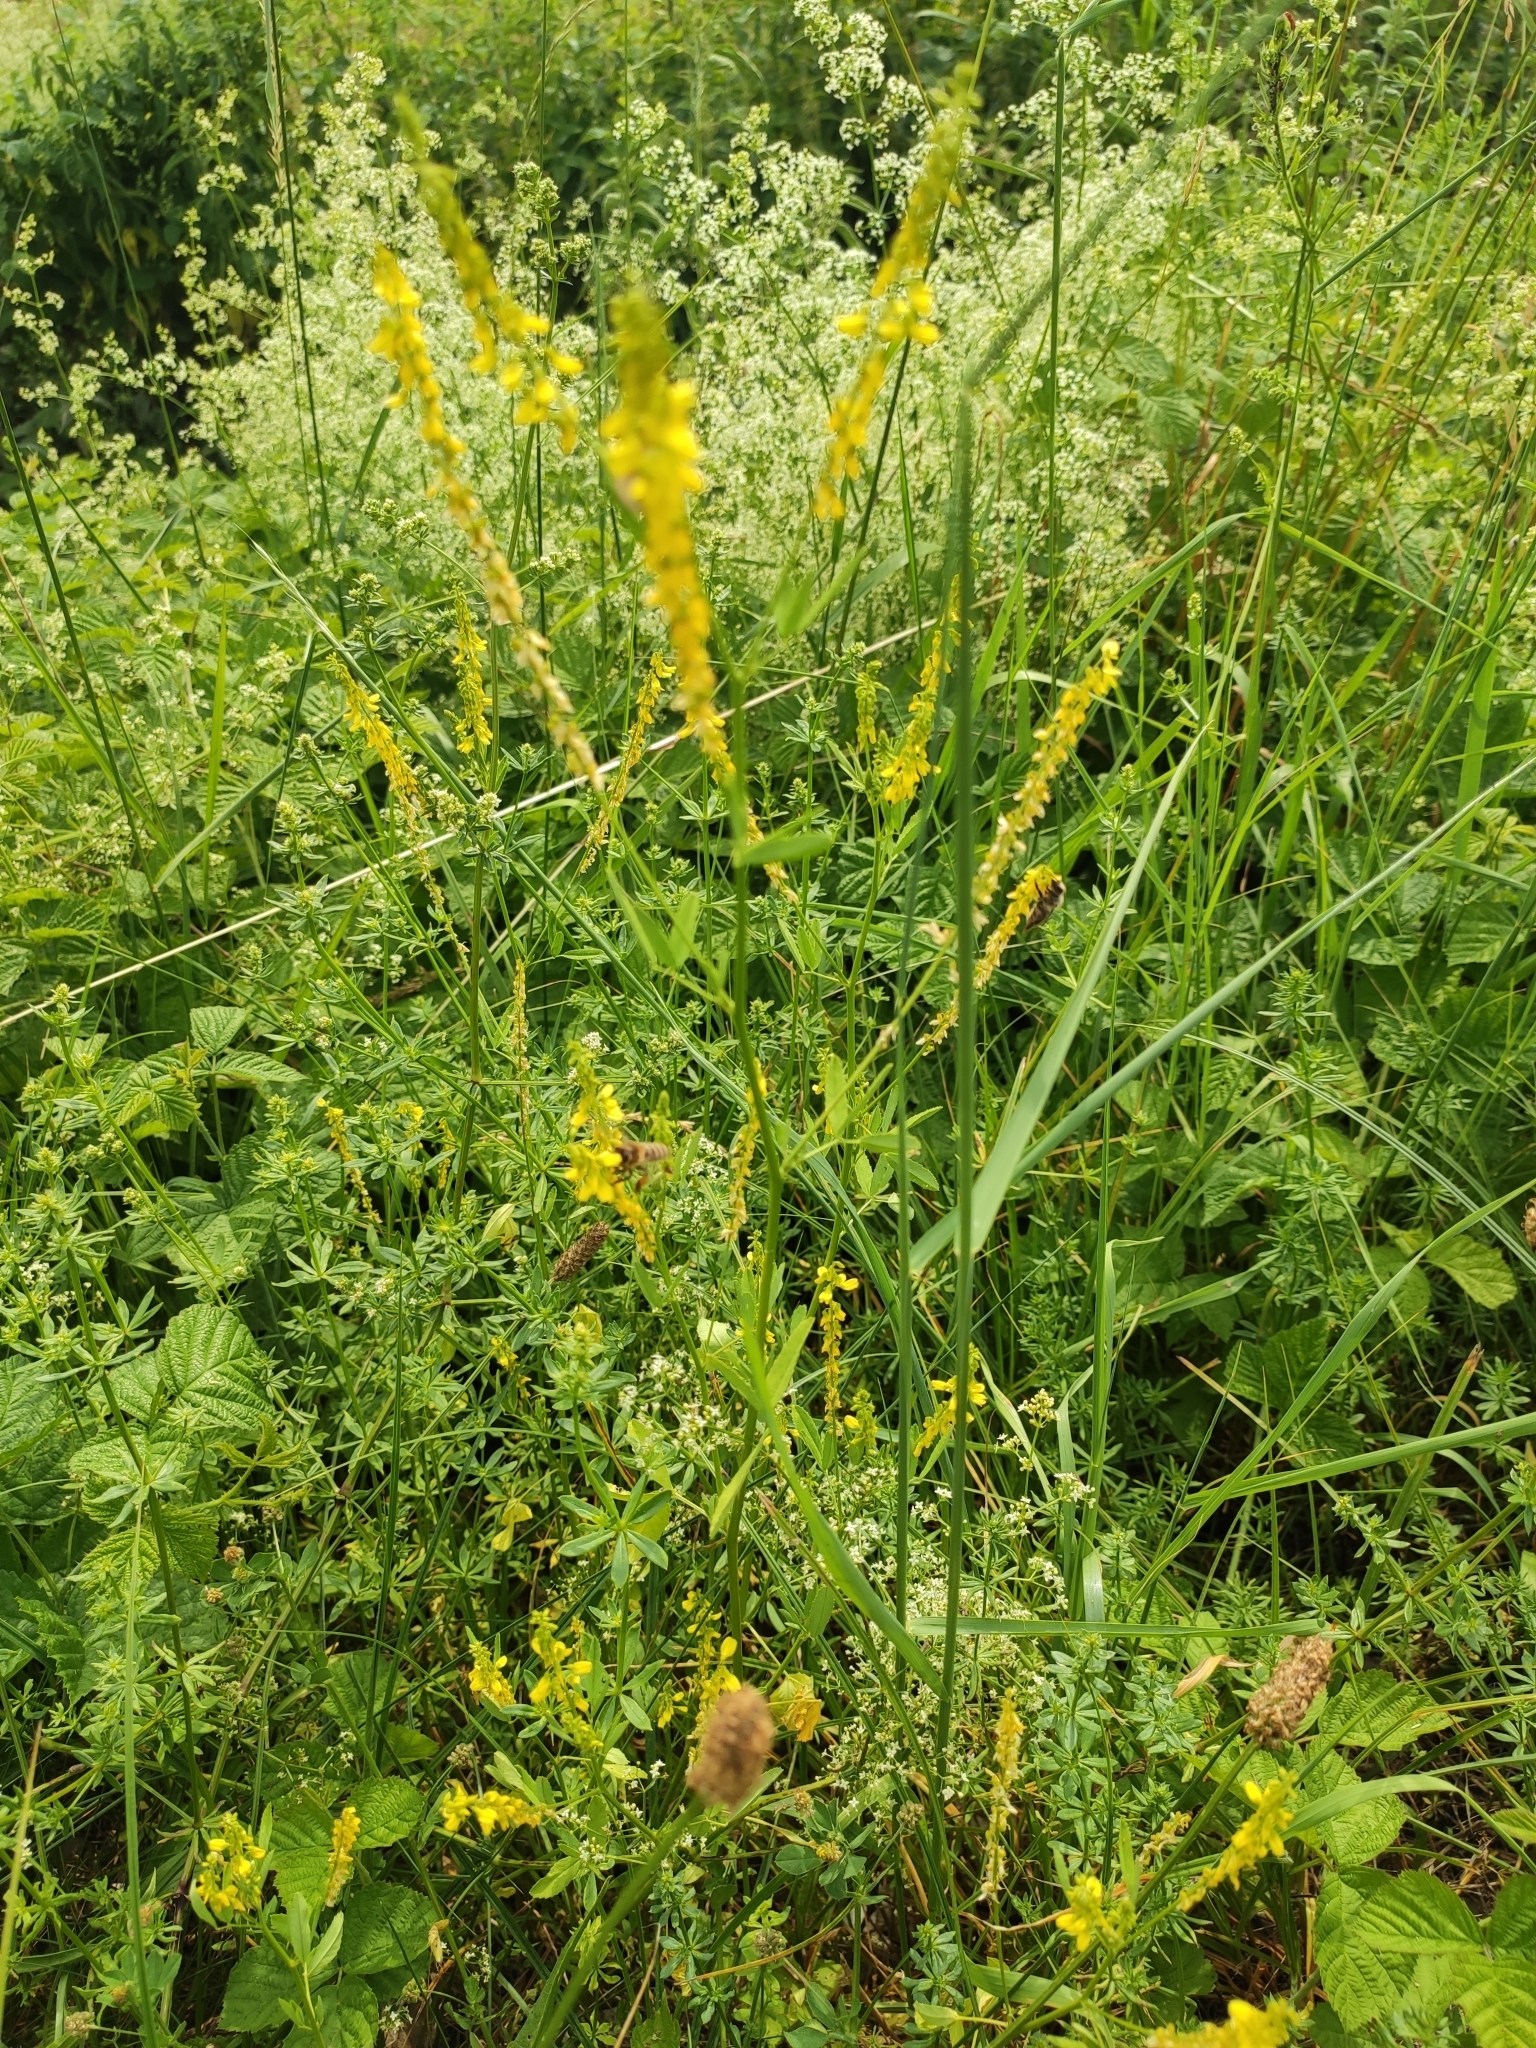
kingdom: Plantae
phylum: Tracheophyta
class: Magnoliopsida
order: Fabales
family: Fabaceae
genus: Melilotus
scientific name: Melilotus officinalis
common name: Sweetclover
